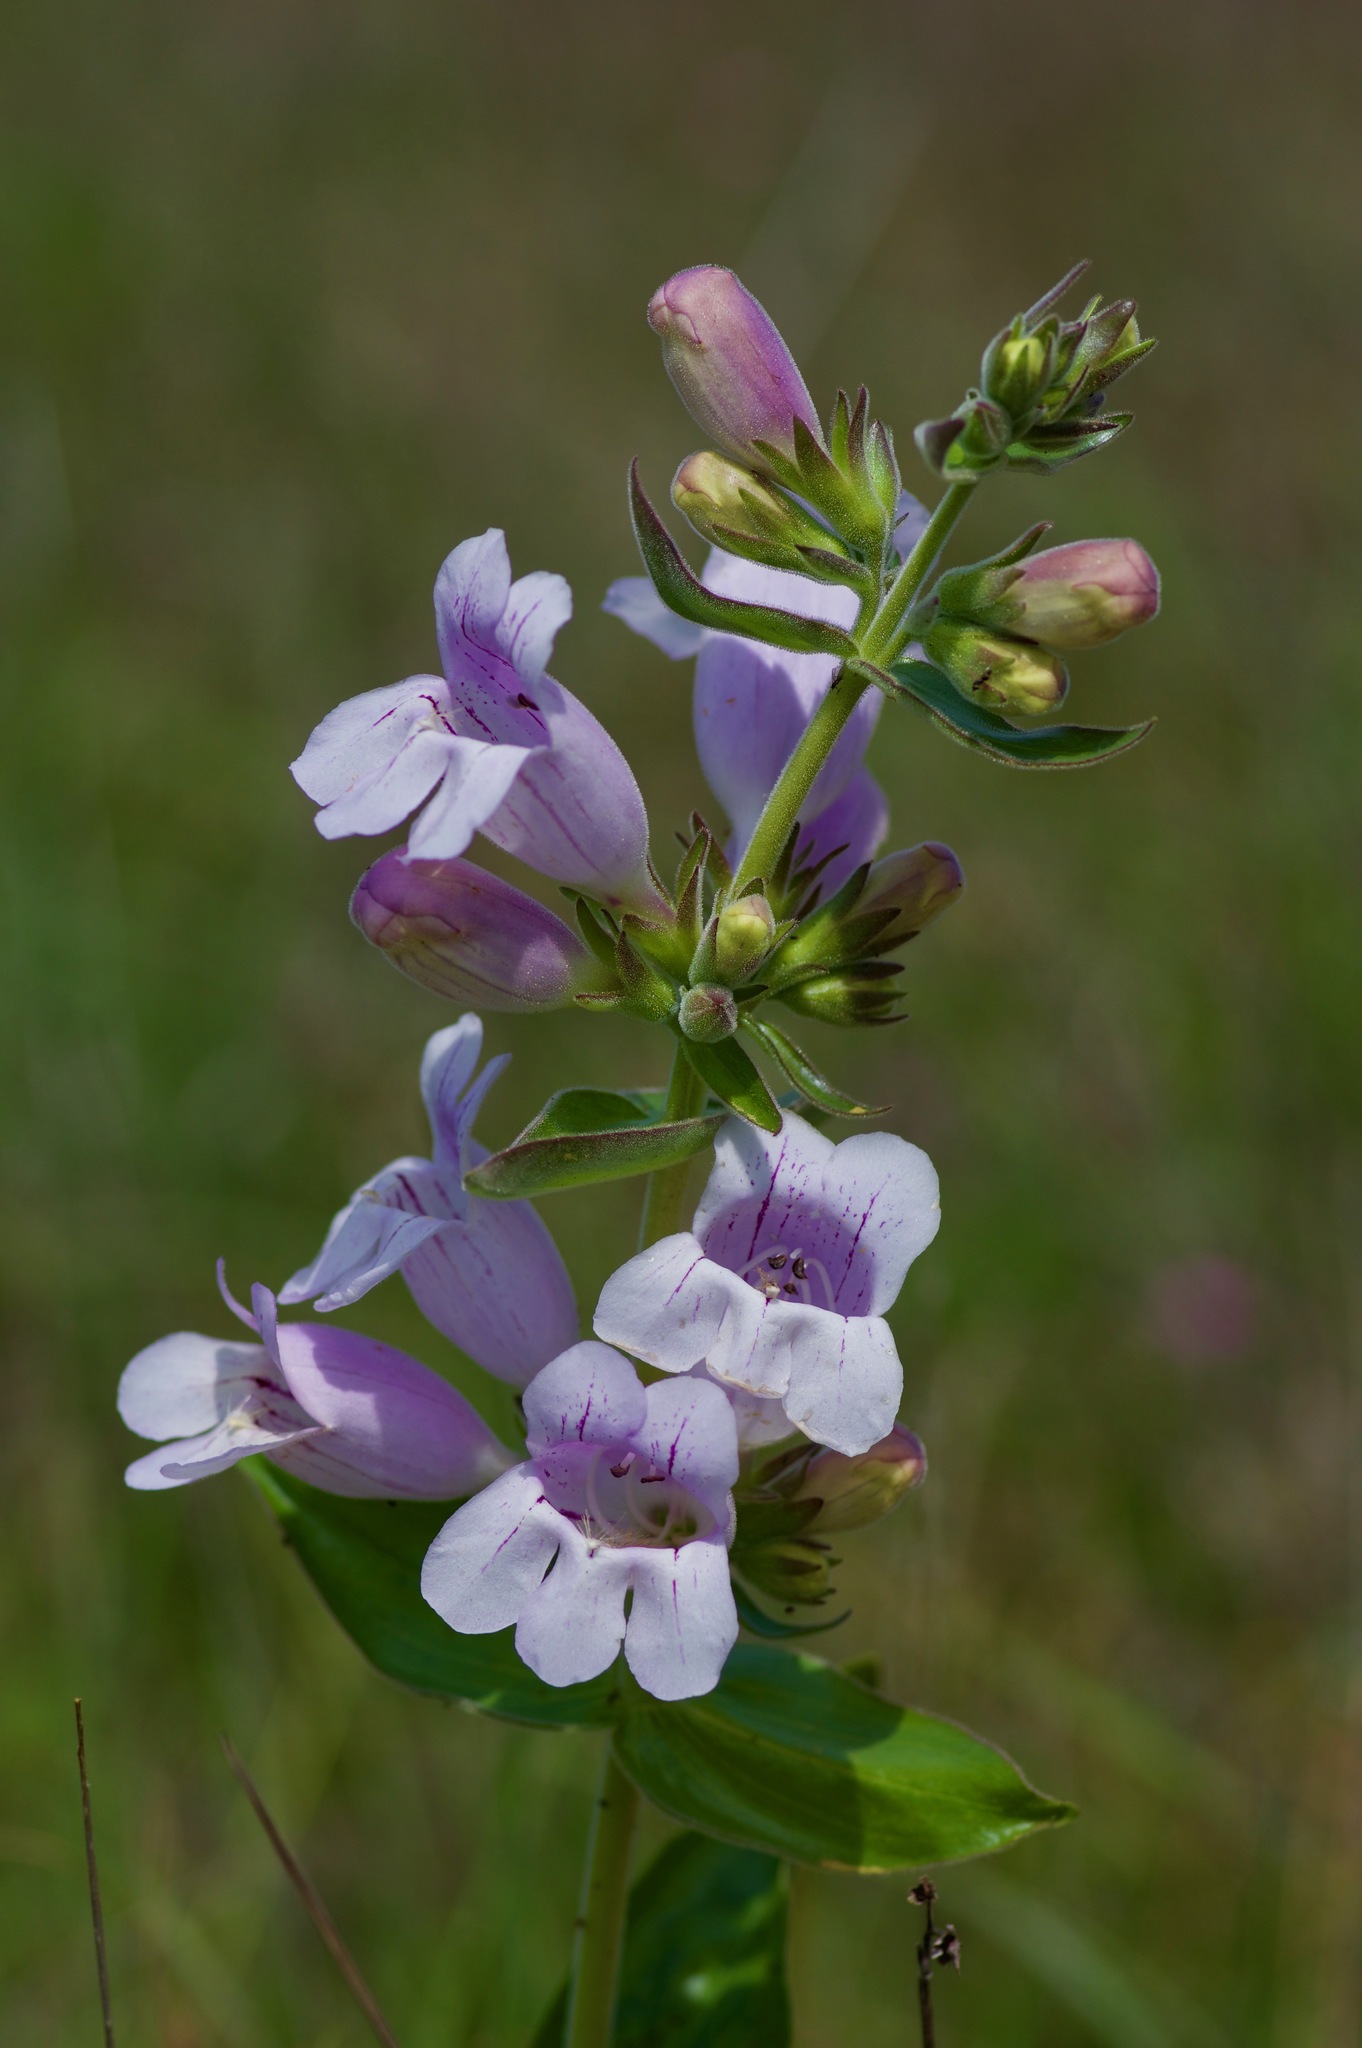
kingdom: Plantae
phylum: Tracheophyta
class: Magnoliopsida
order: Lamiales
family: Plantaginaceae
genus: Penstemon
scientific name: Penstemon cobaea
